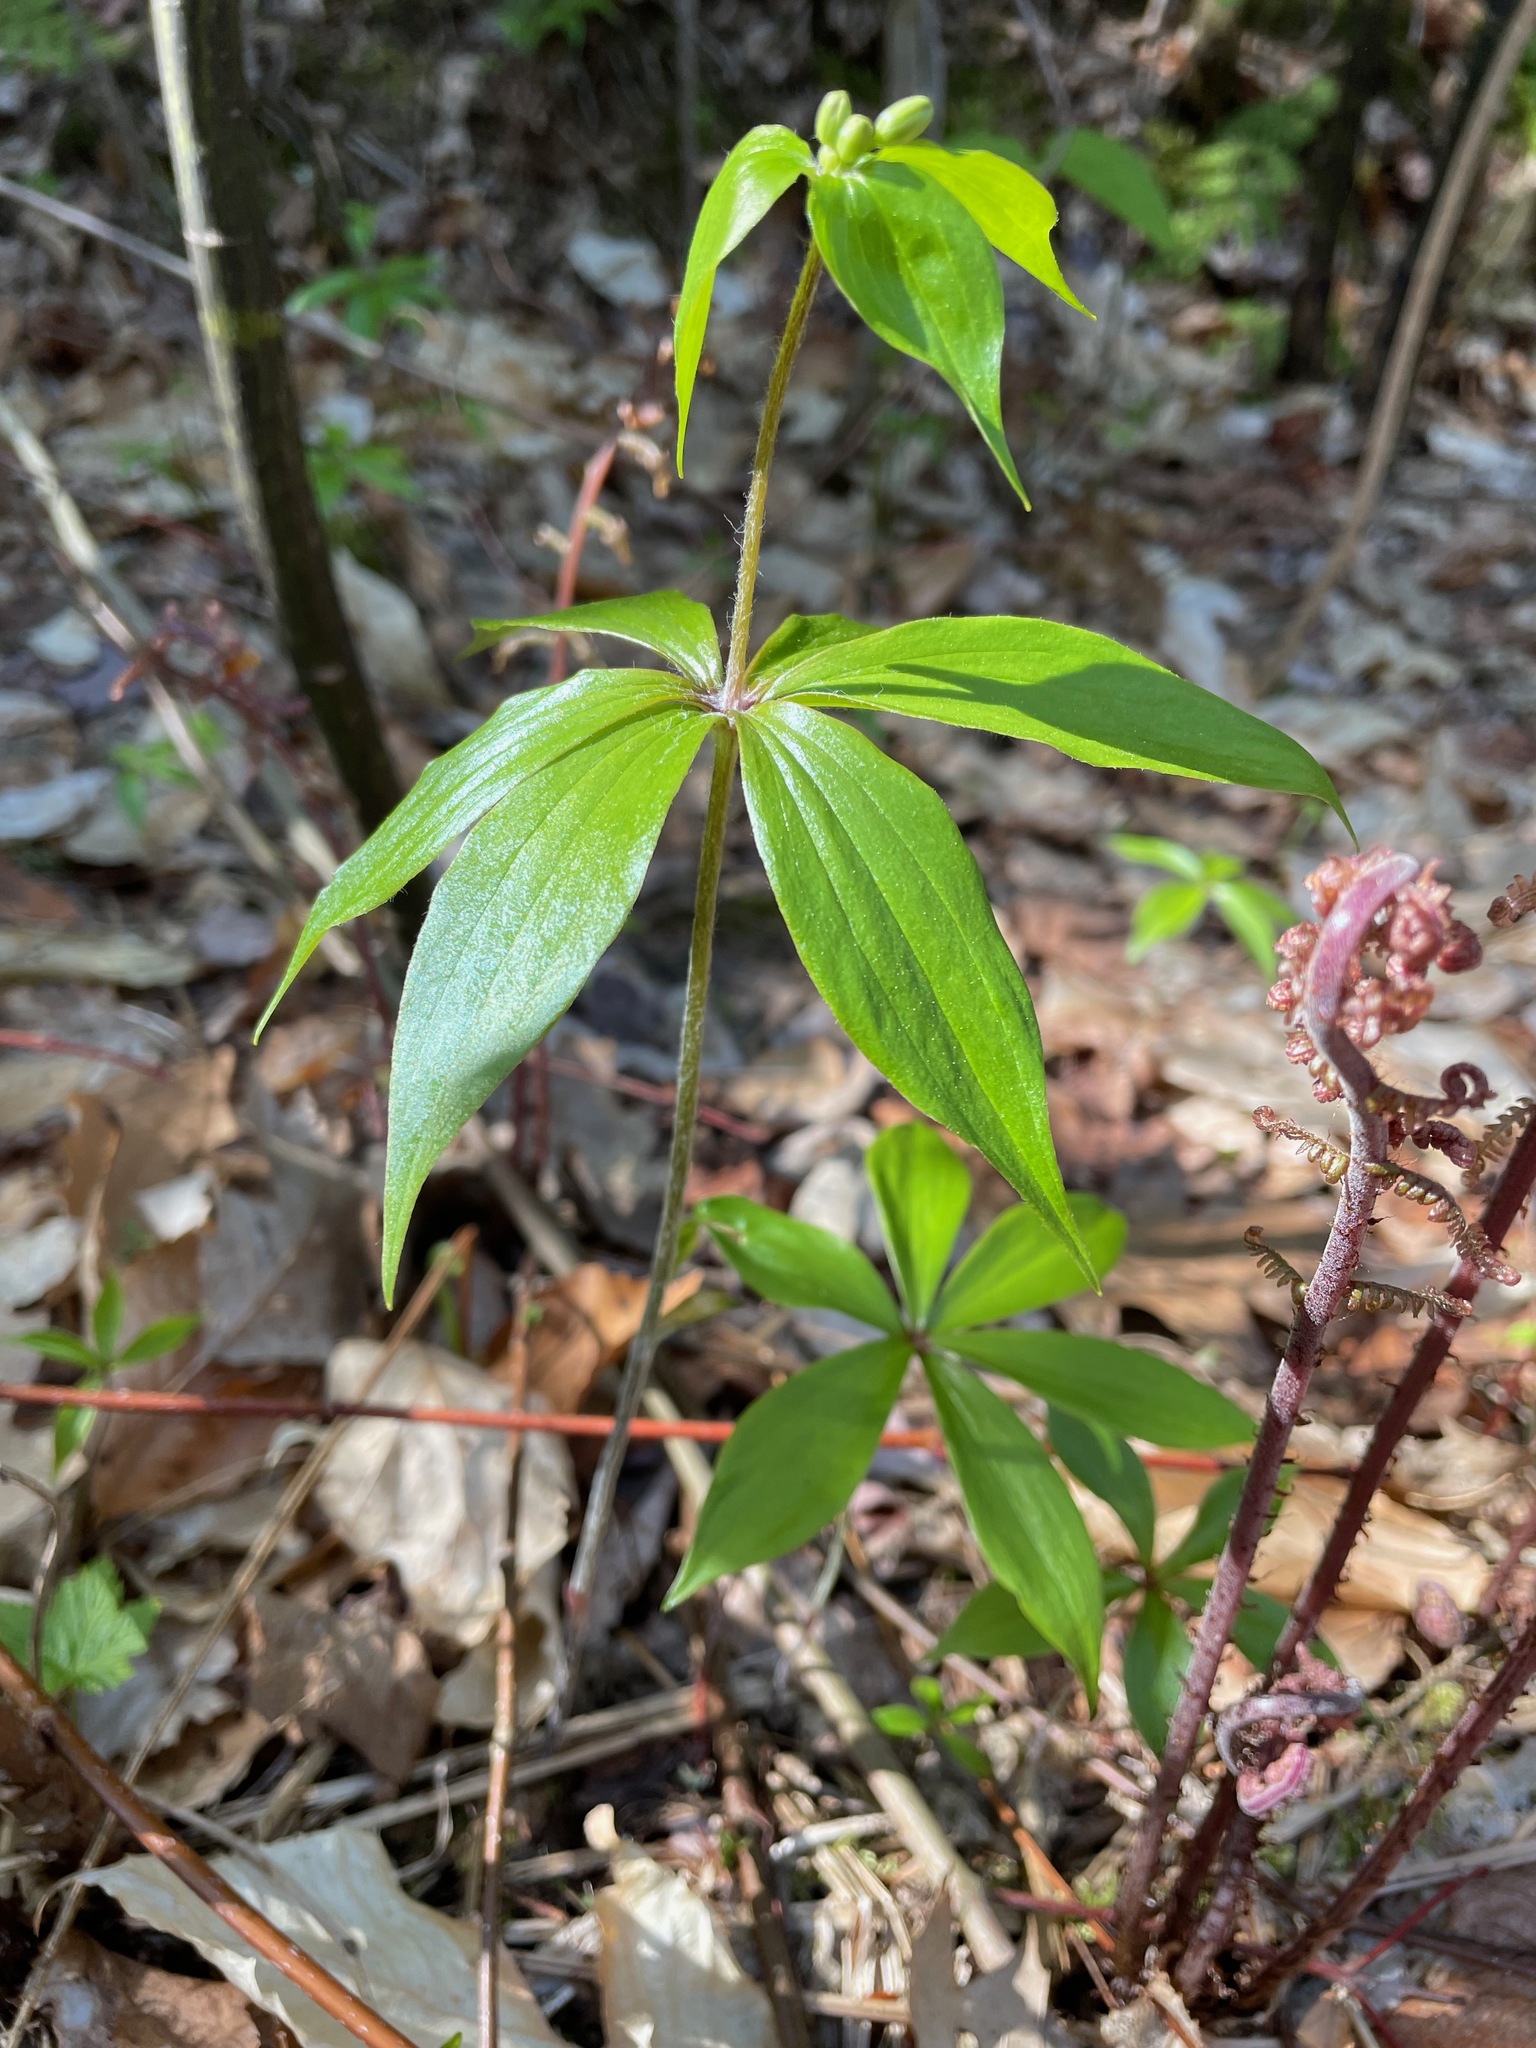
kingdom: Plantae
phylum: Tracheophyta
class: Liliopsida
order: Liliales
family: Liliaceae
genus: Medeola
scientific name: Medeola virginiana
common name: Indian cucumber-root
